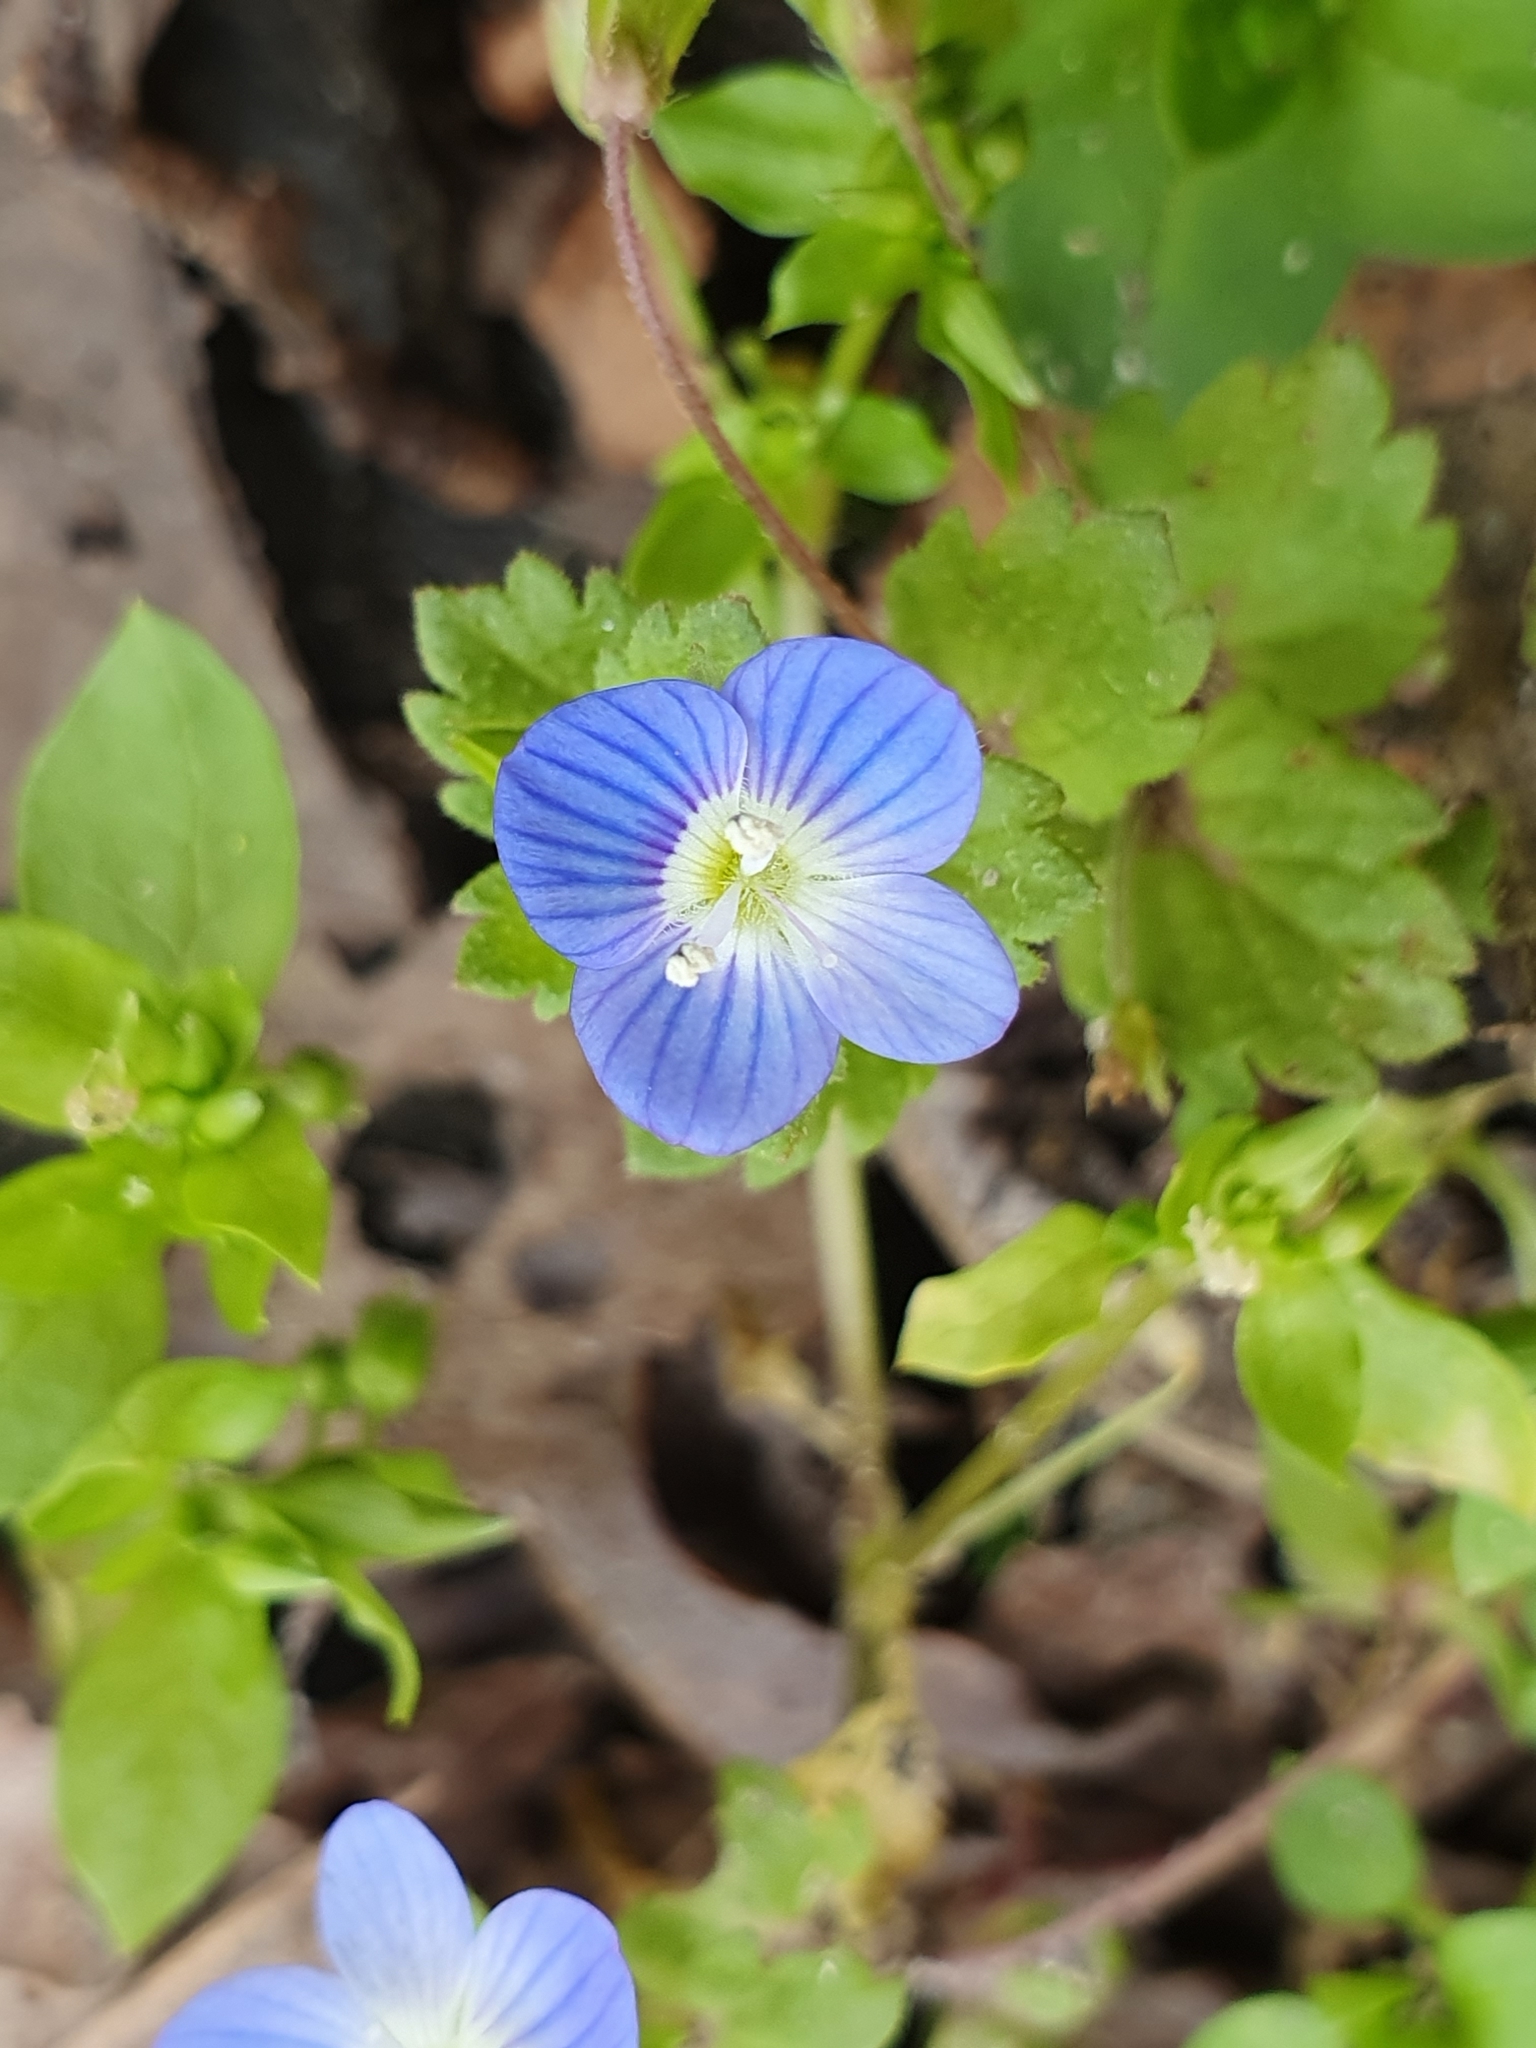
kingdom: Plantae
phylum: Tracheophyta
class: Magnoliopsida
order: Lamiales
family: Plantaginaceae
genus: Veronica
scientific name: Veronica persica
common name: Common field-speedwell
